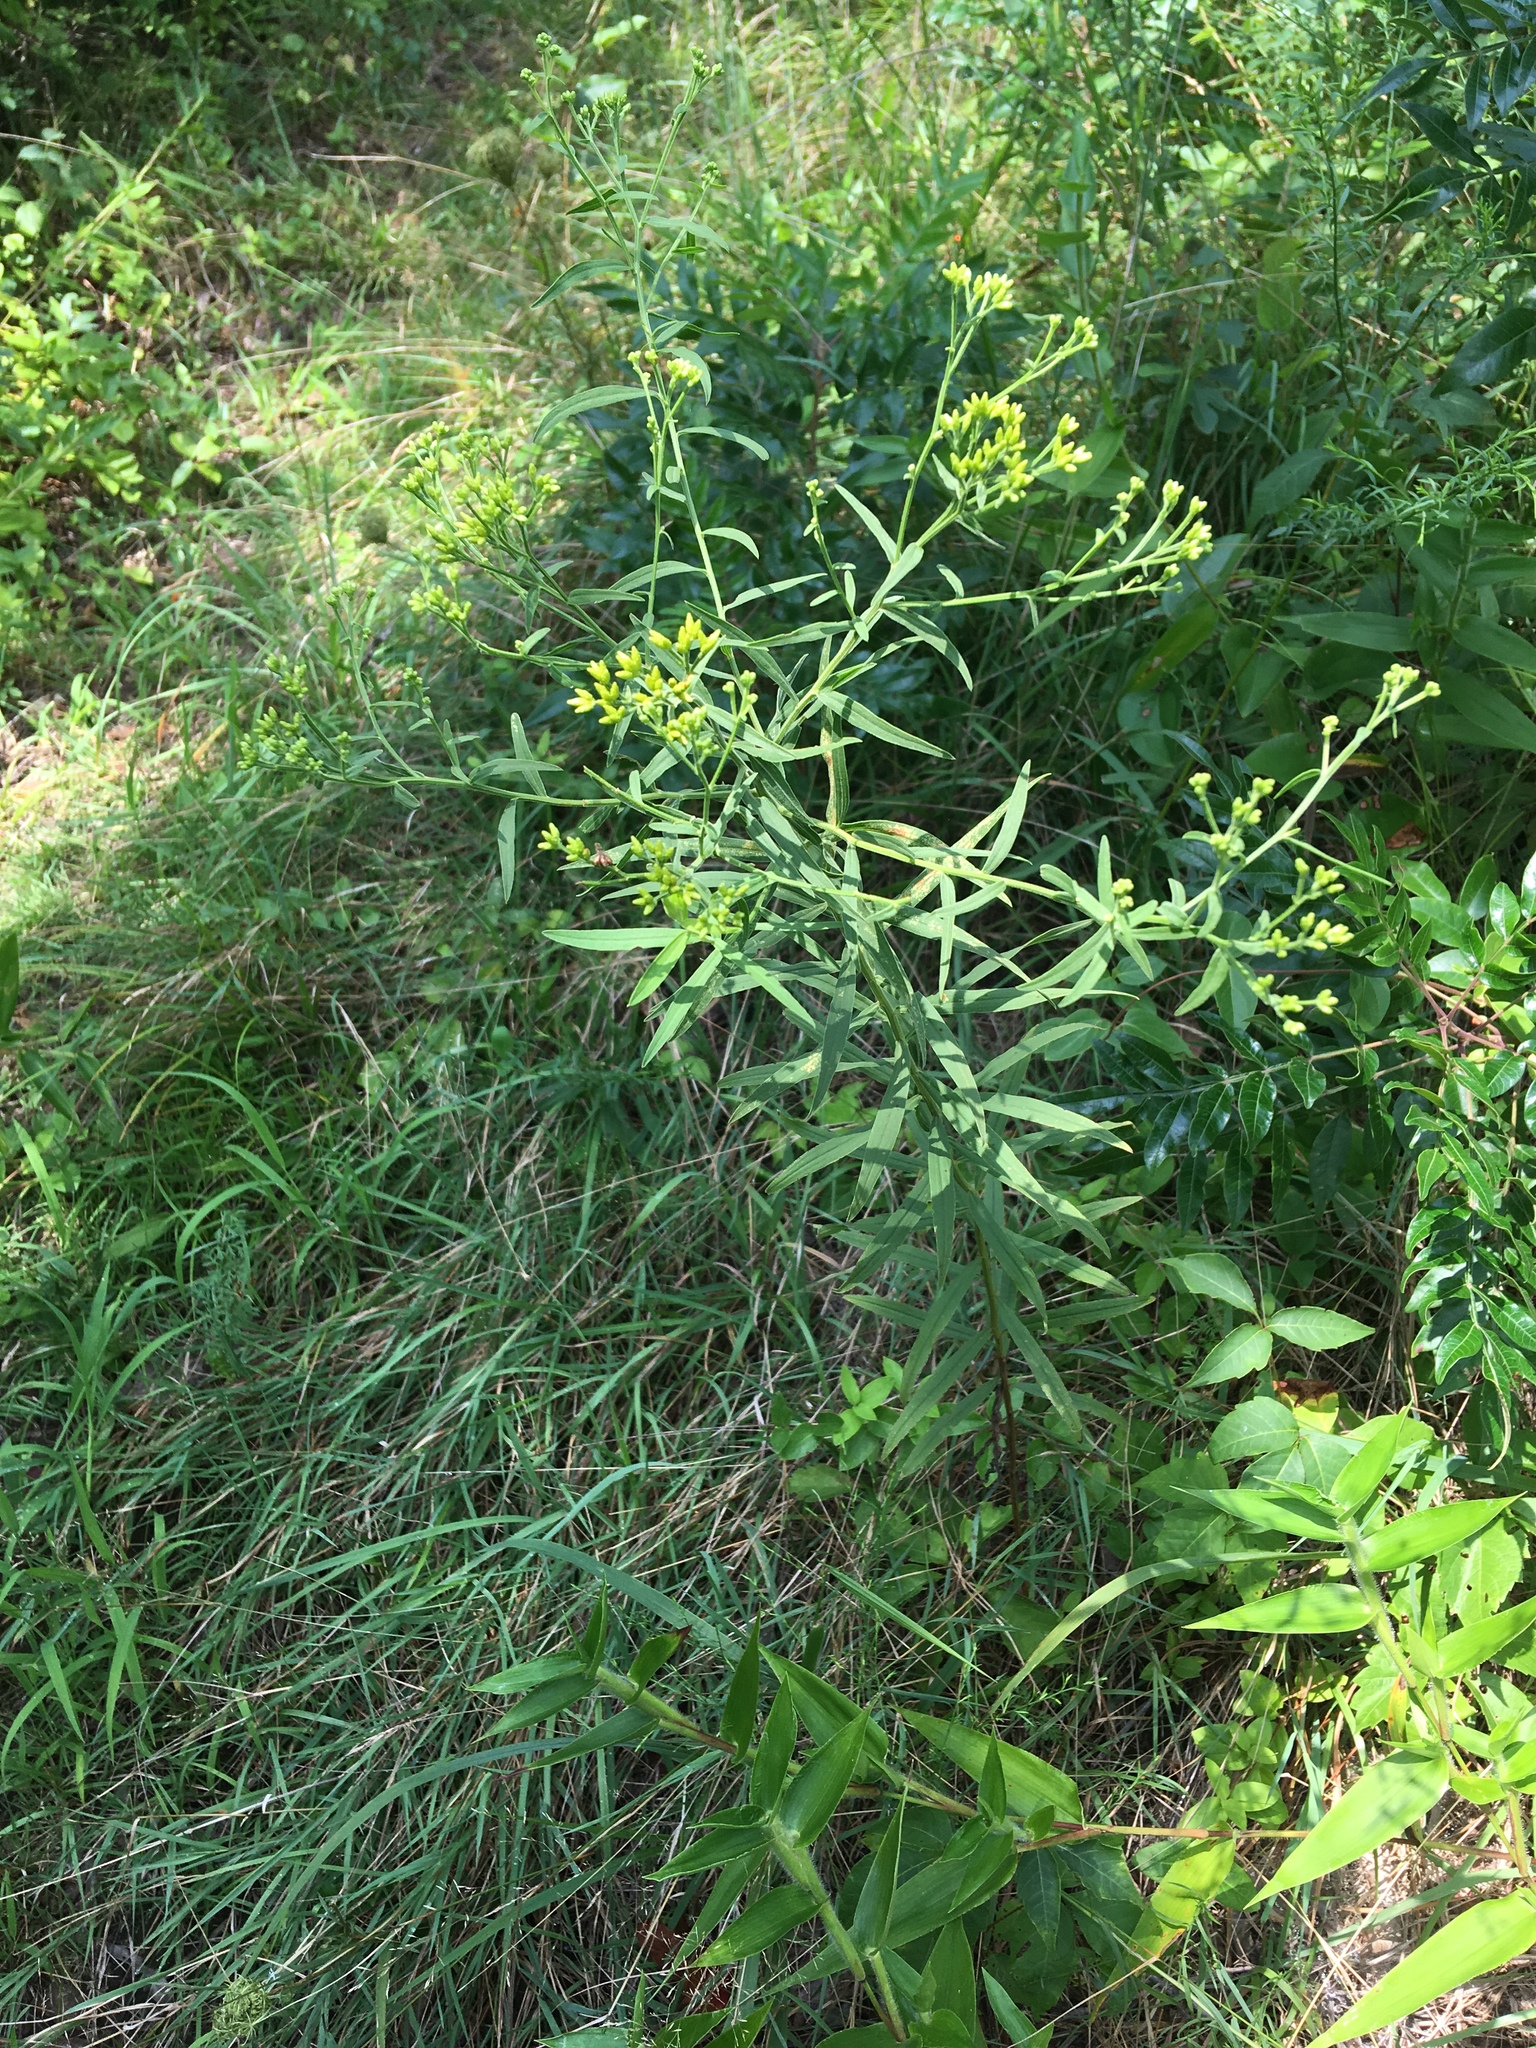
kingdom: Plantae
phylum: Tracheophyta
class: Magnoliopsida
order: Asterales
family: Asteraceae
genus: Euthamia
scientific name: Euthamia graminifolia
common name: Common goldentop
